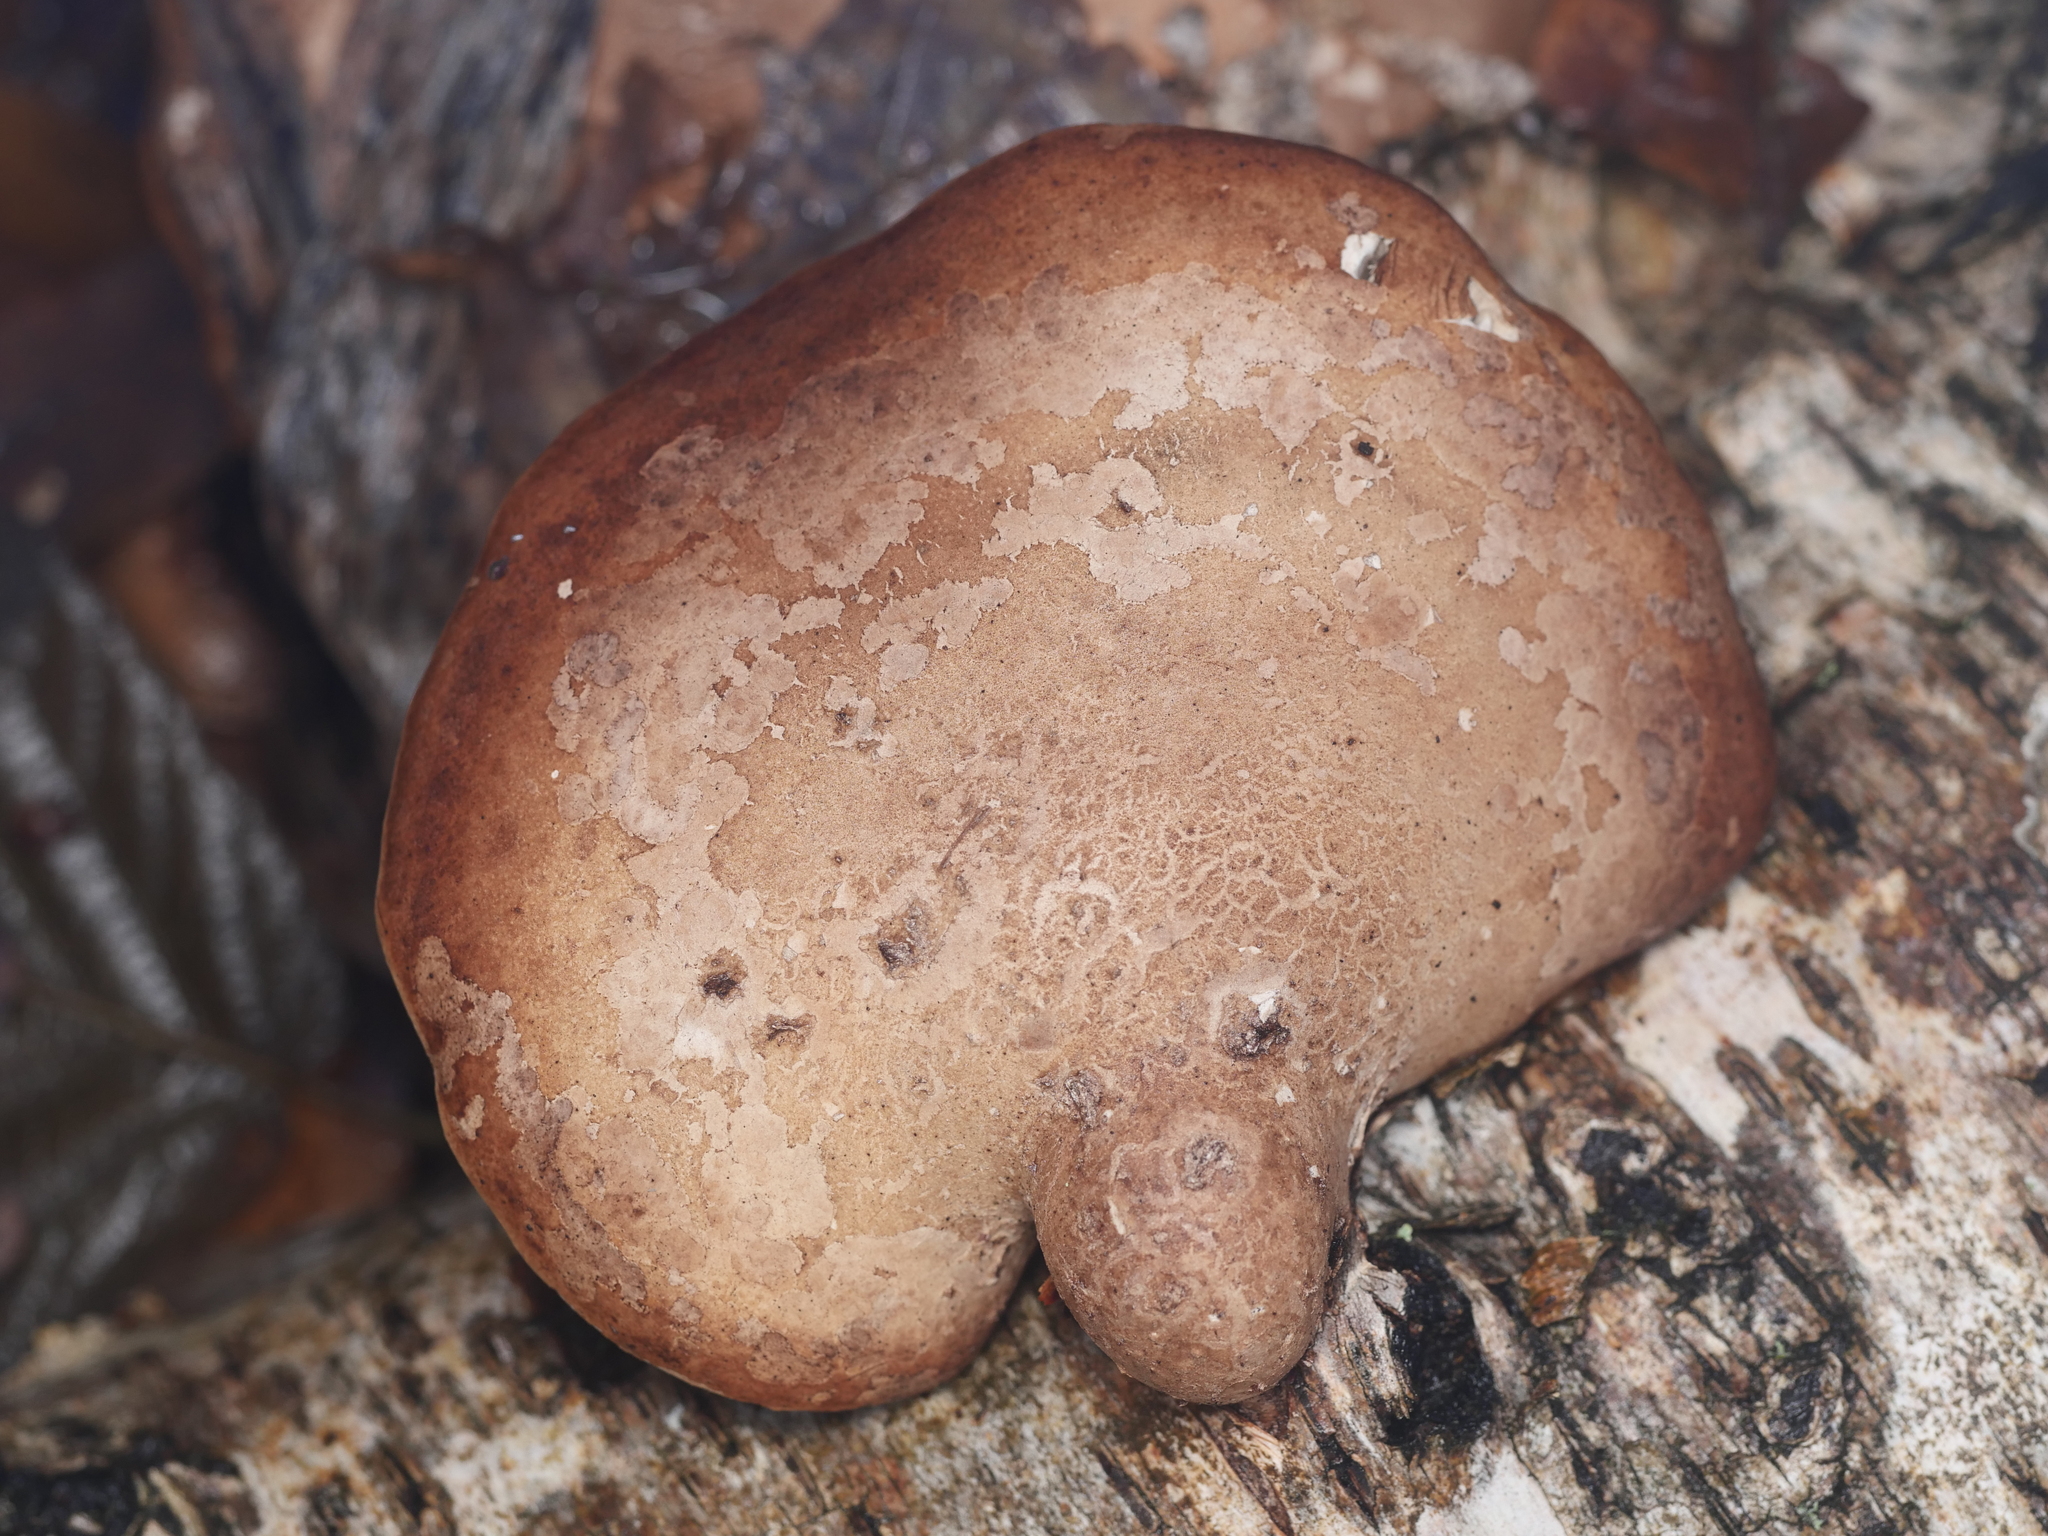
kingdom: Fungi
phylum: Basidiomycota
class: Agaricomycetes
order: Polyporales
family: Fomitopsidaceae
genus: Fomitopsis
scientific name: Fomitopsis betulina
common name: Birch polypore
